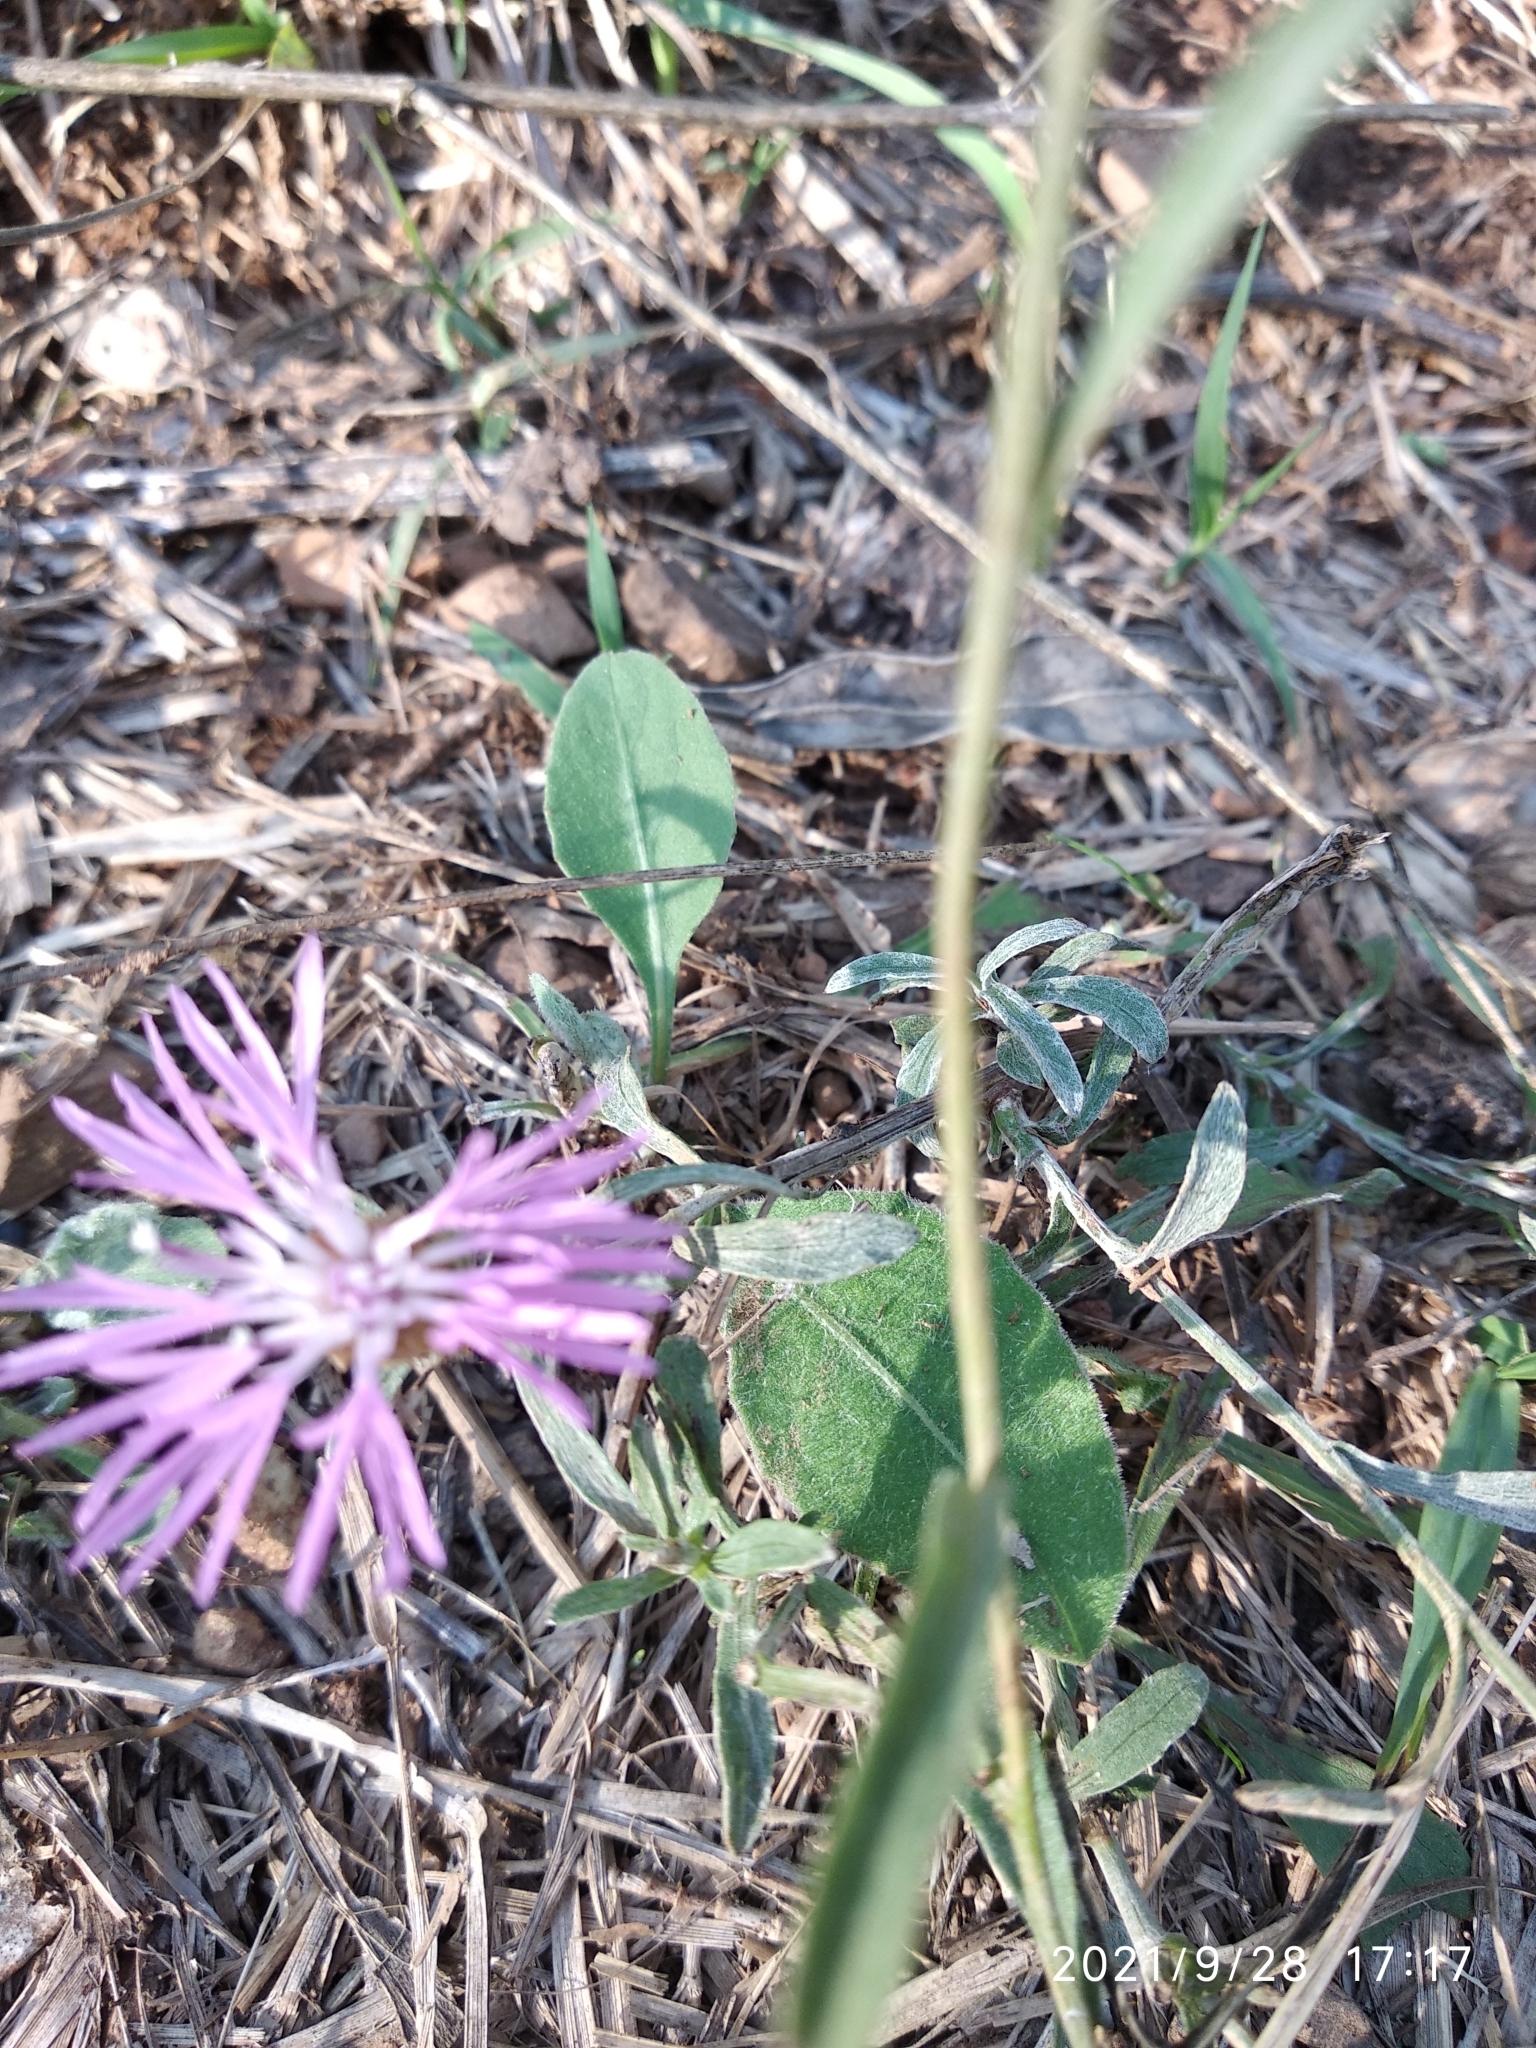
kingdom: Plantae
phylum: Tracheophyta
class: Magnoliopsida
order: Asterales
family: Asteraceae
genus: Centaurea
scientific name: Centaurea jacea
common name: Brown knapweed
